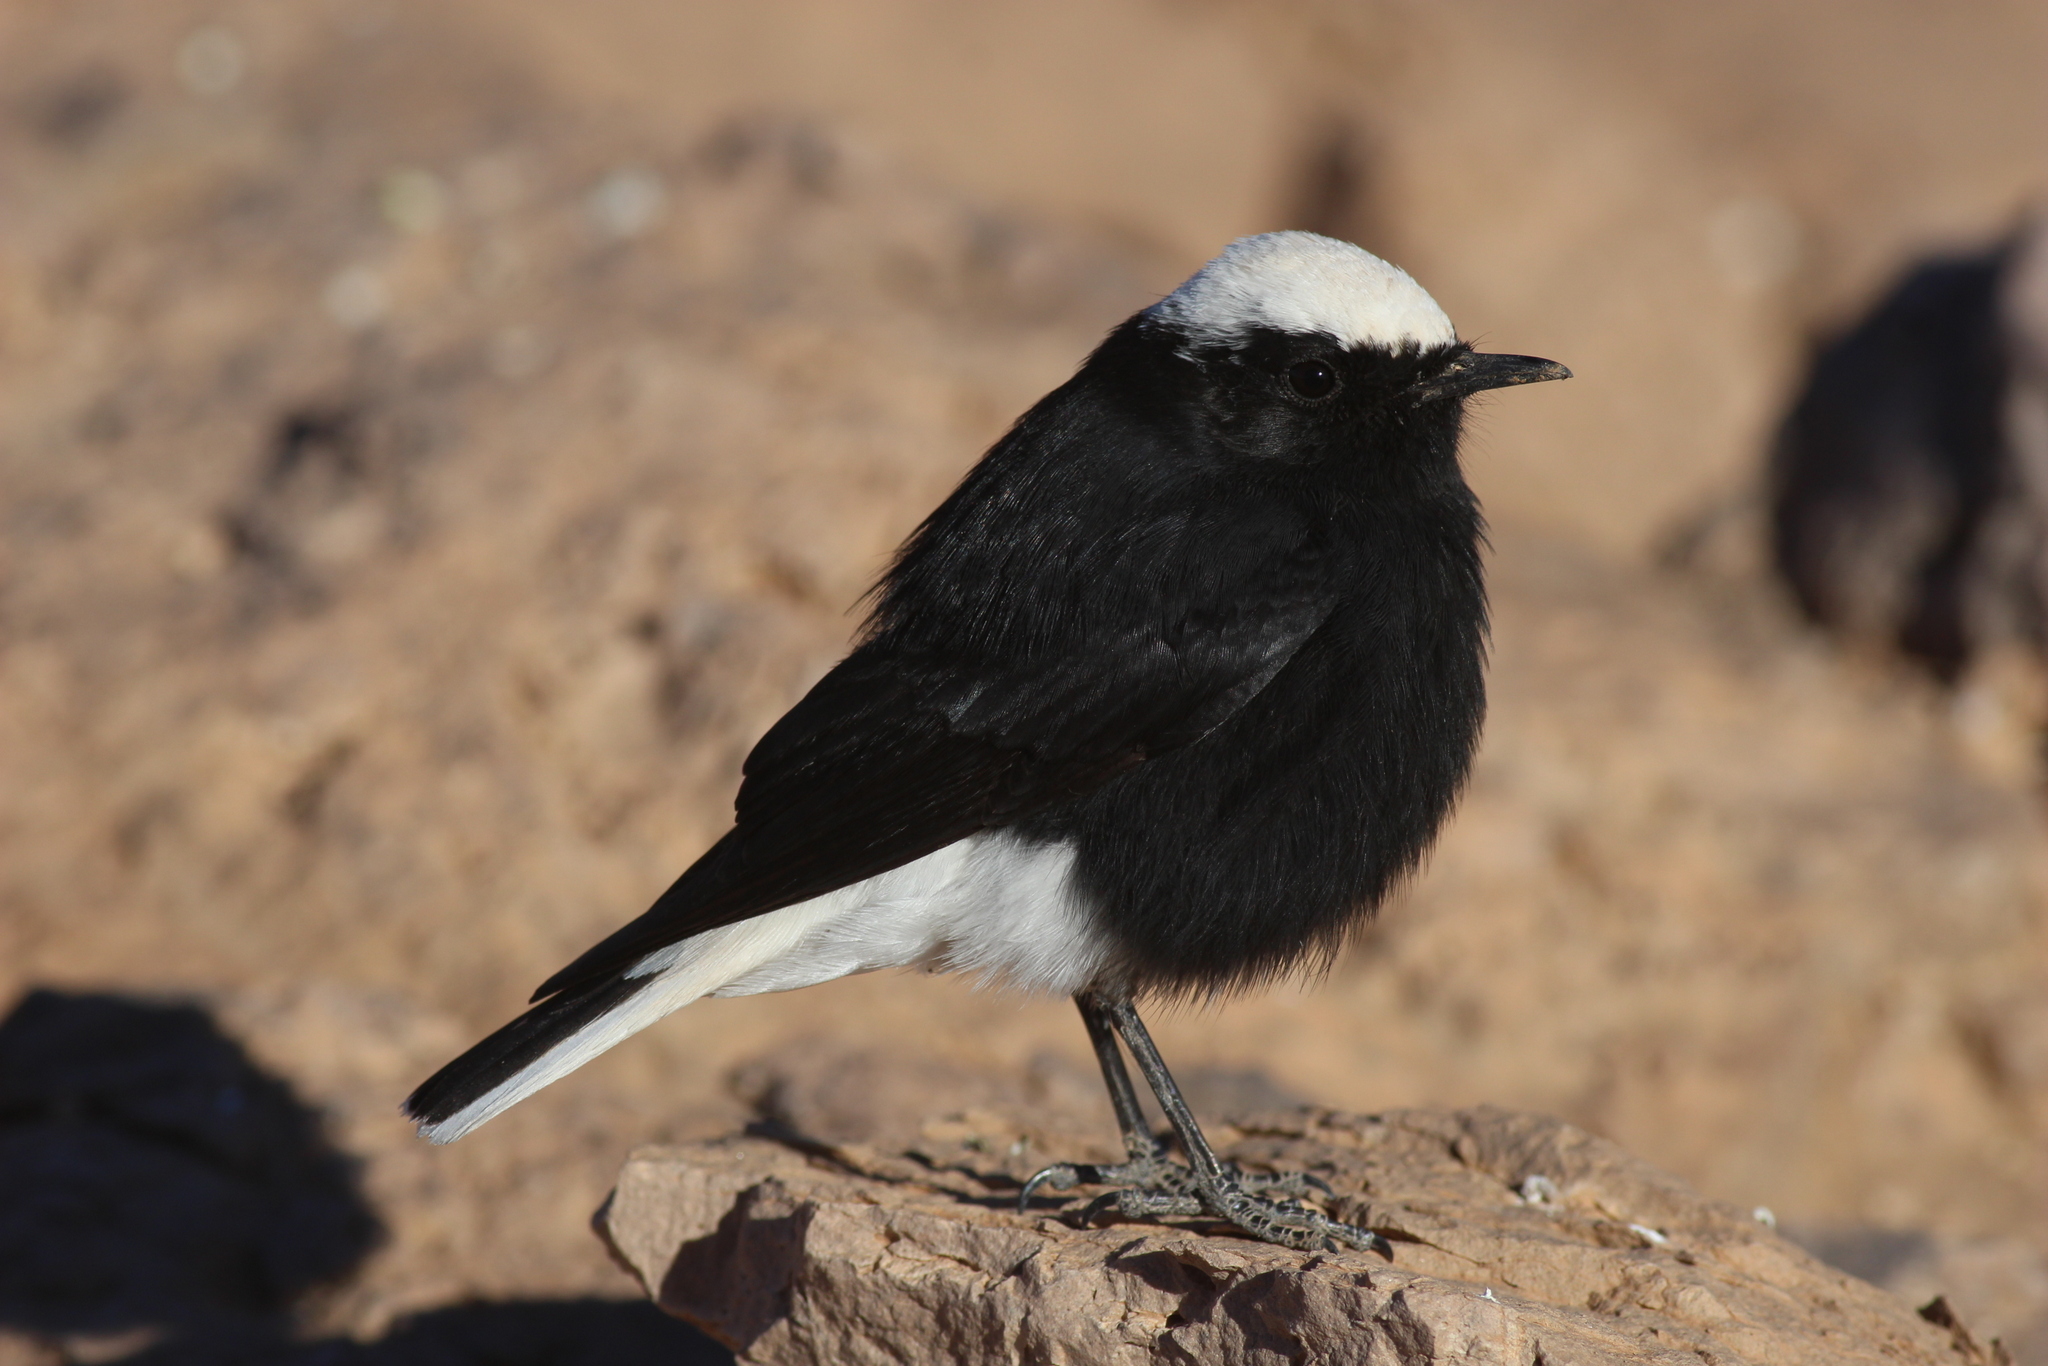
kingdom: Animalia
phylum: Chordata
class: Aves
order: Passeriformes
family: Muscicapidae
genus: Oenanthe
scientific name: Oenanthe leucopyga
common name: White-crowned wheatear
